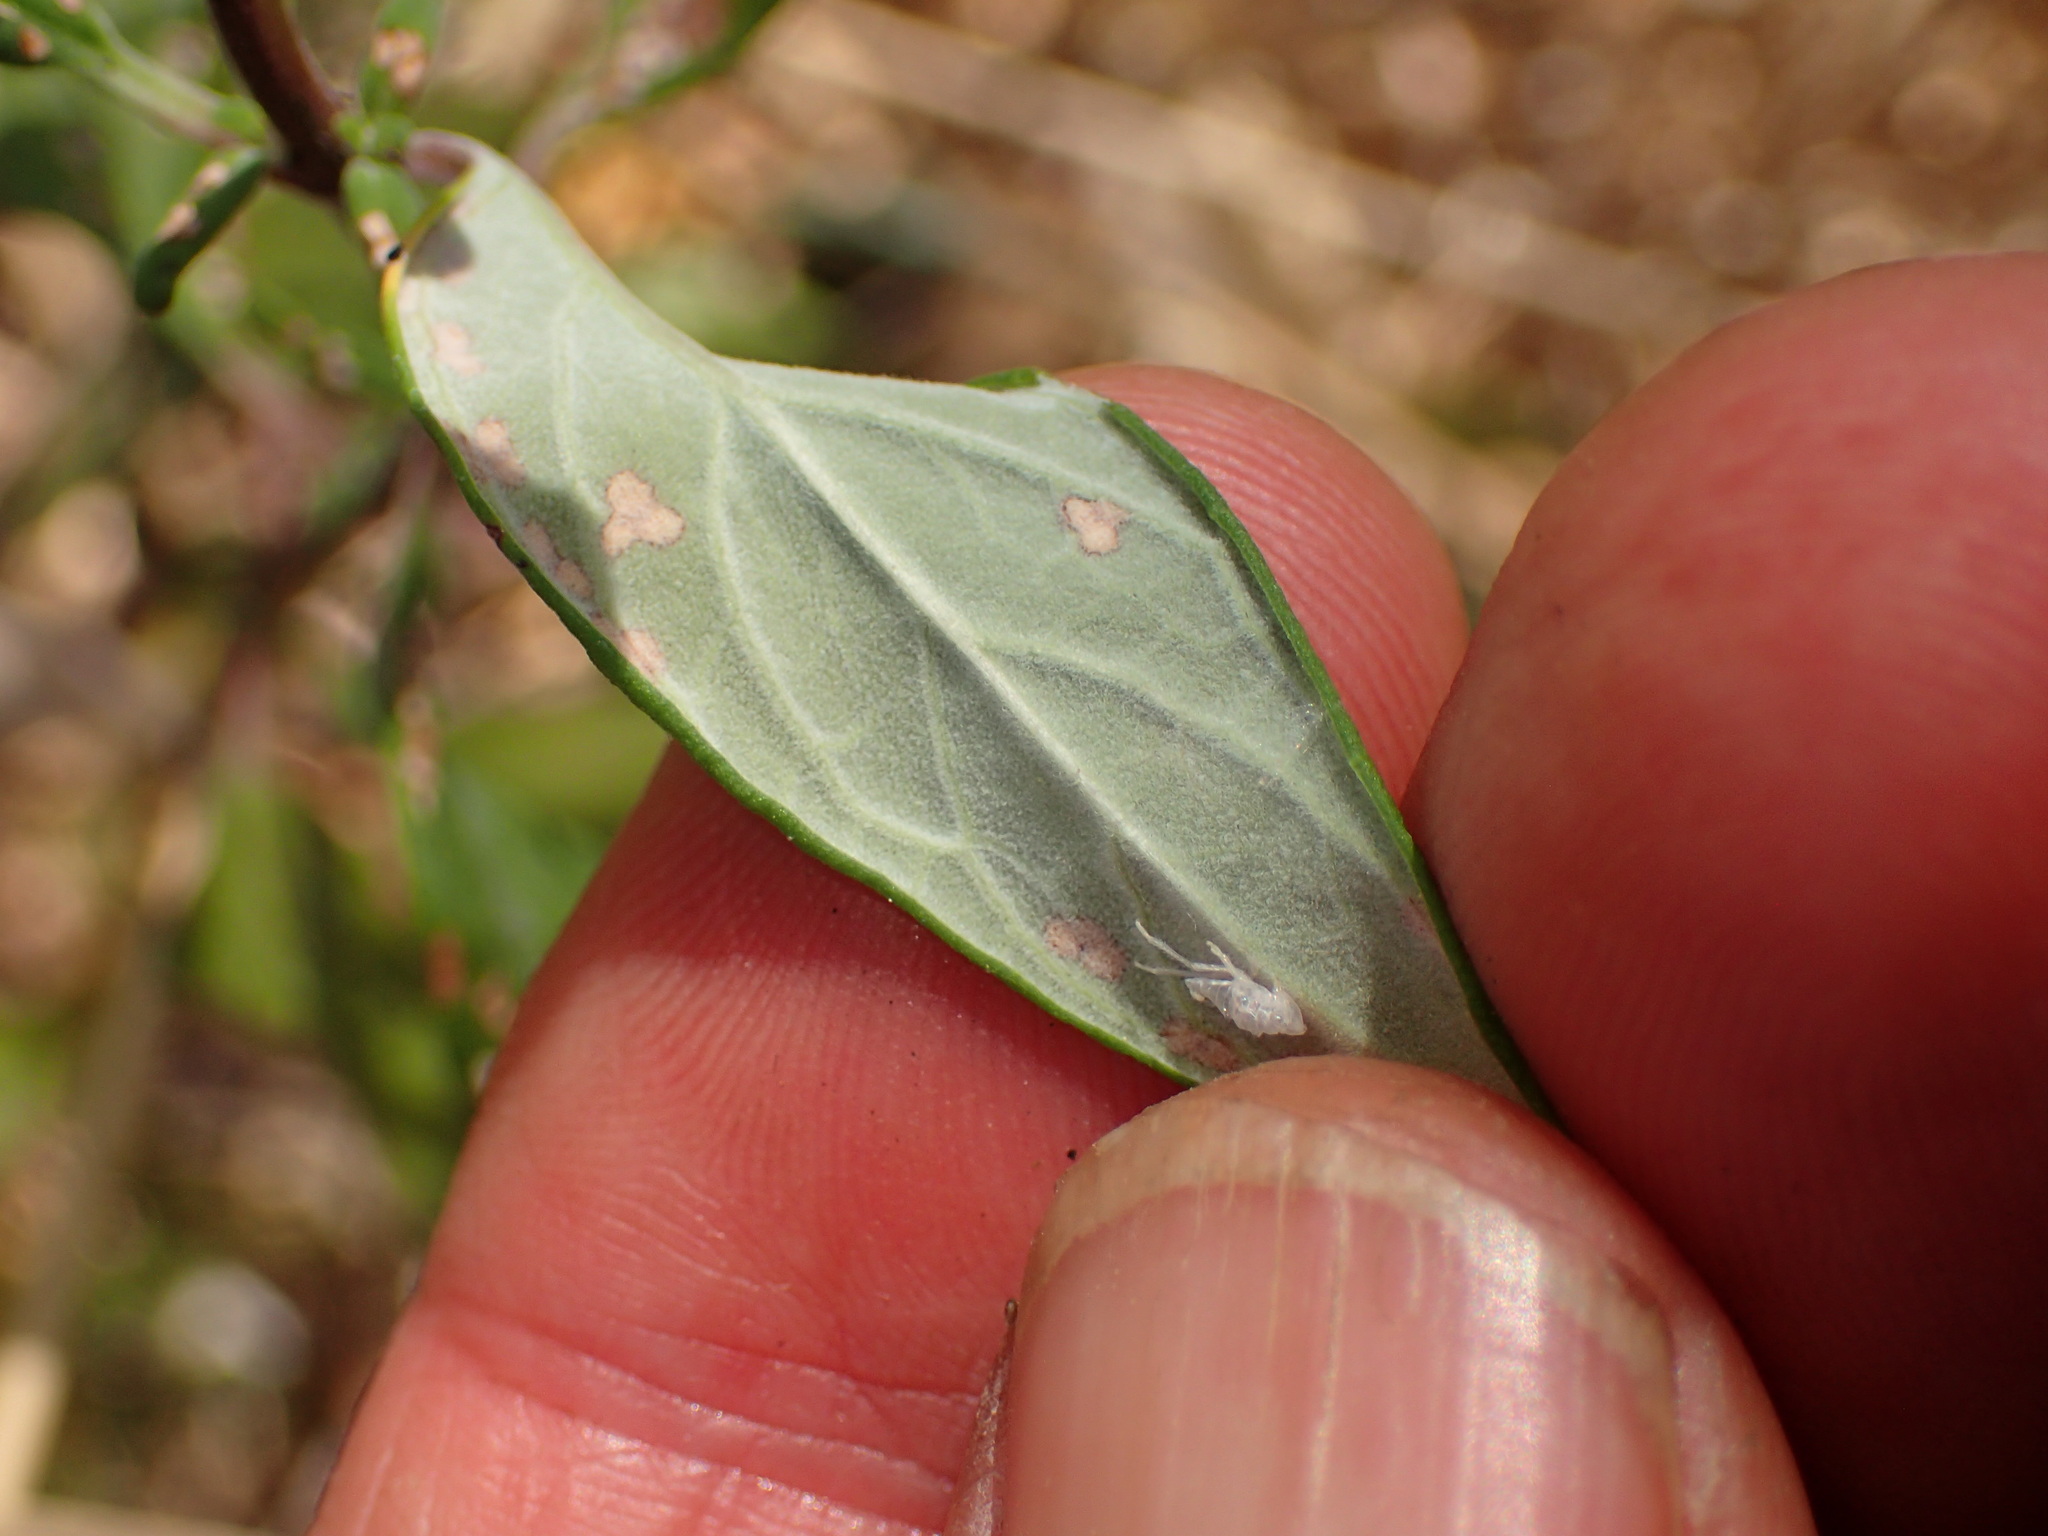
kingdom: Plantae
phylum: Tracheophyta
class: Magnoliopsida
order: Lamiales
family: Lamiaceae
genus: Monardella
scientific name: Monardella hypoleuca
